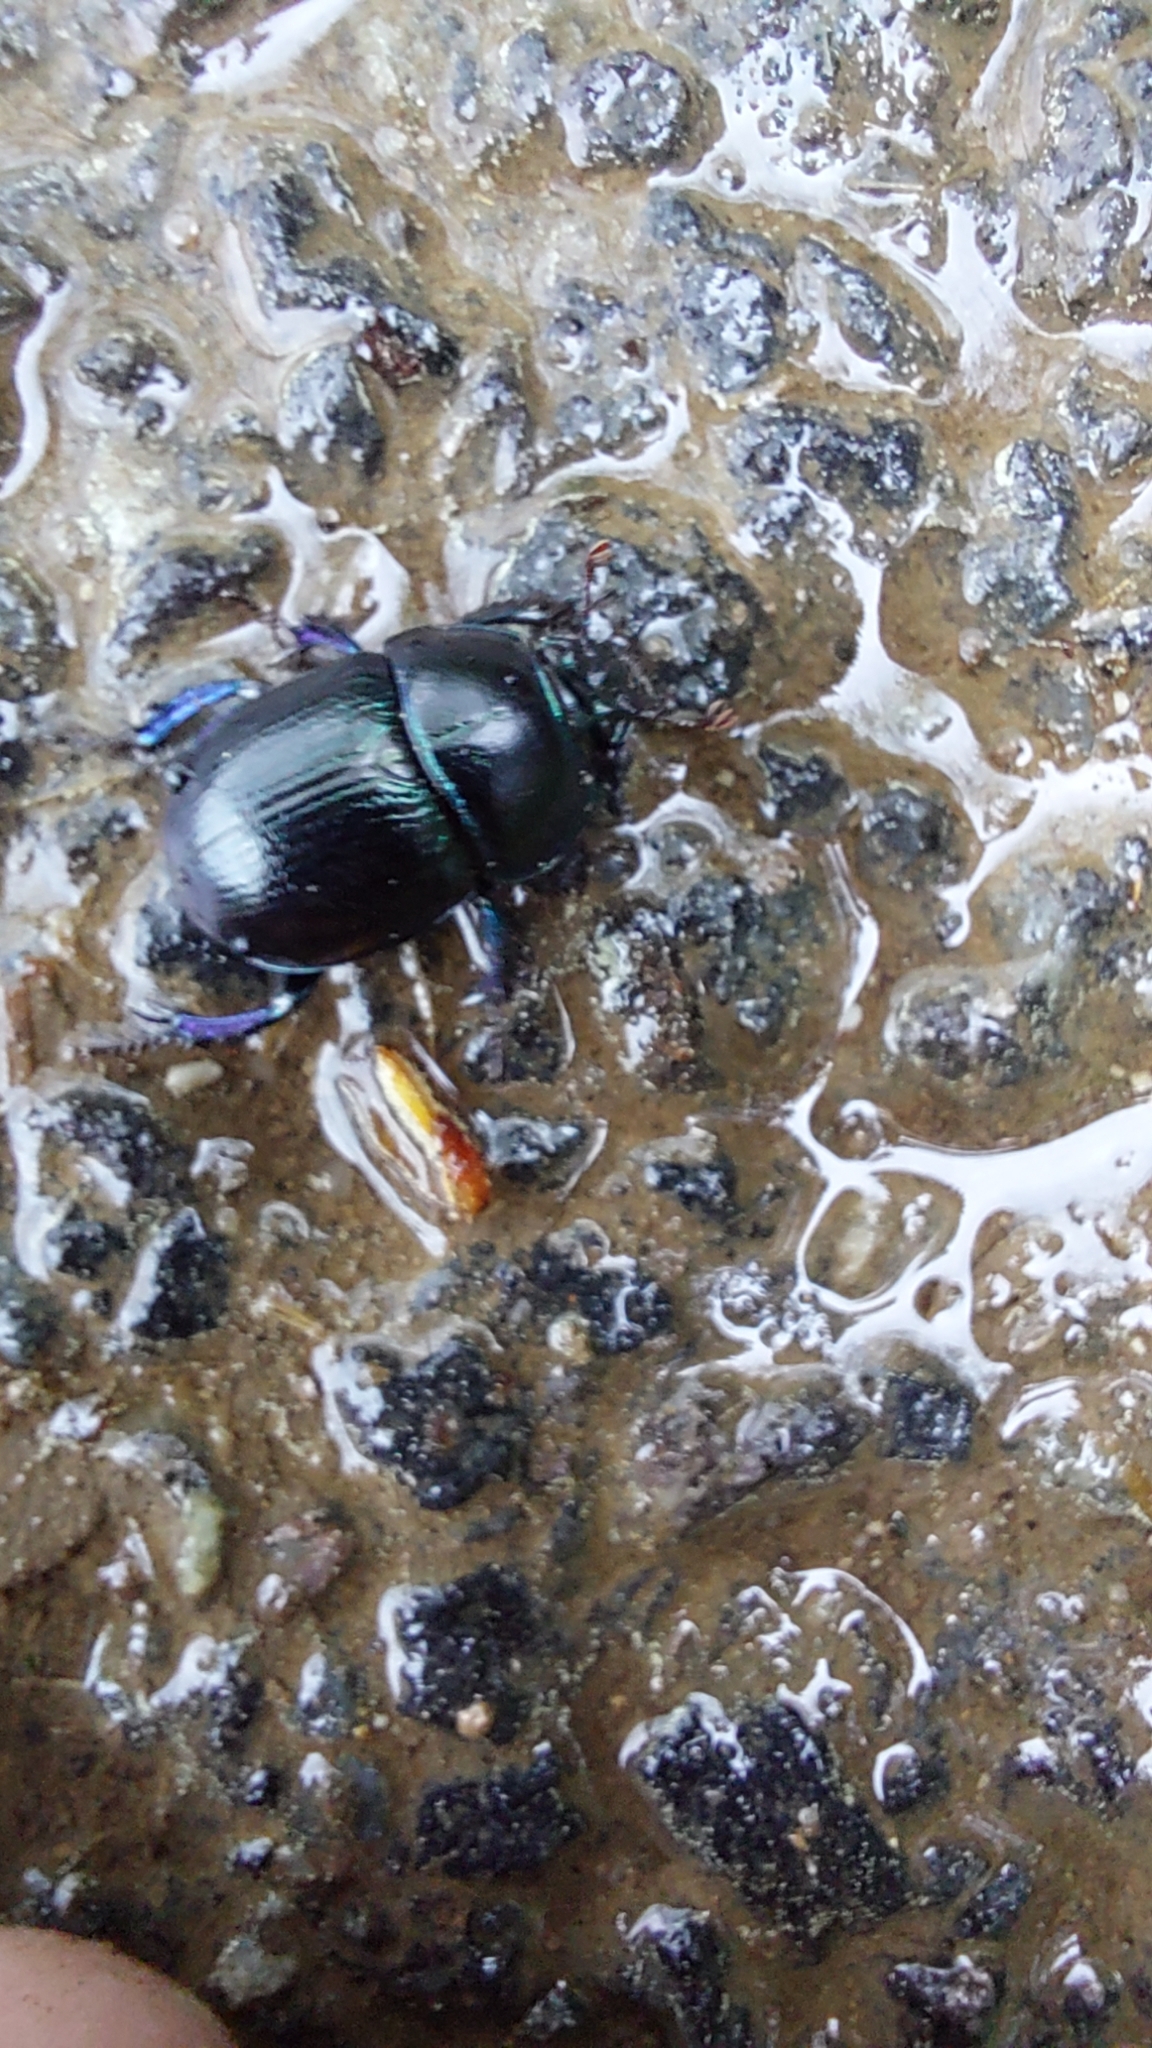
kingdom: Animalia
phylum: Arthropoda
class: Insecta
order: Coleoptera
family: Geotrupidae
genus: Anoplotrupes
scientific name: Anoplotrupes stercorosus
